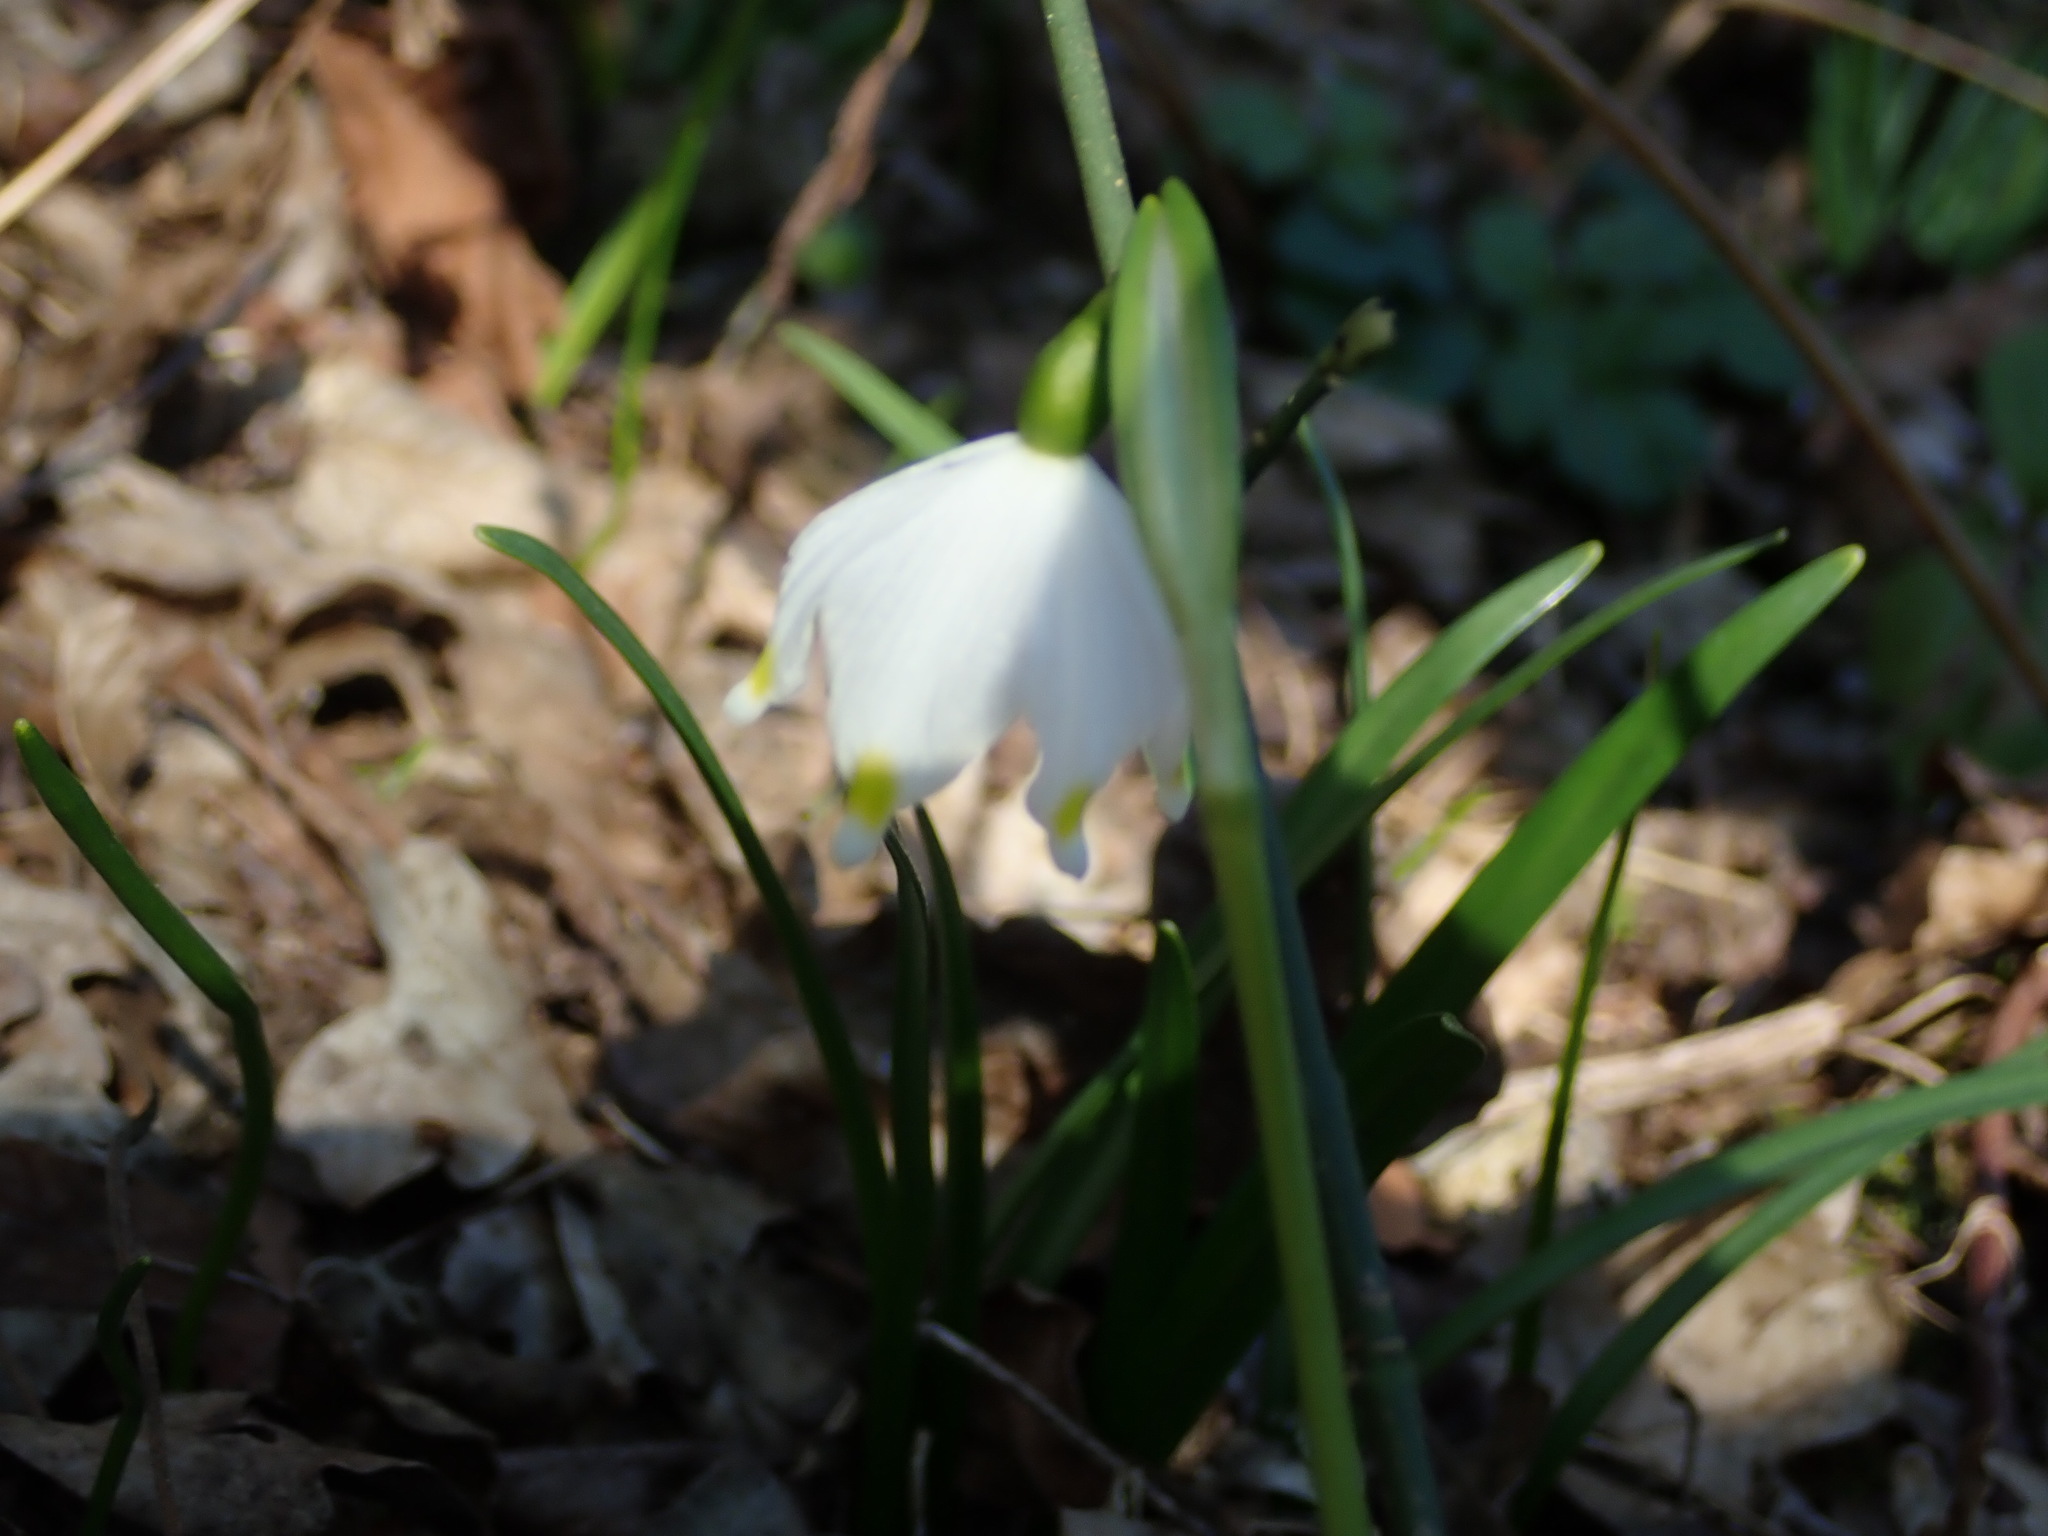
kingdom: Plantae
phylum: Tracheophyta
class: Liliopsida
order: Asparagales
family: Amaryllidaceae
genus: Leucojum
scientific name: Leucojum vernum
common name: Spring snowflake
